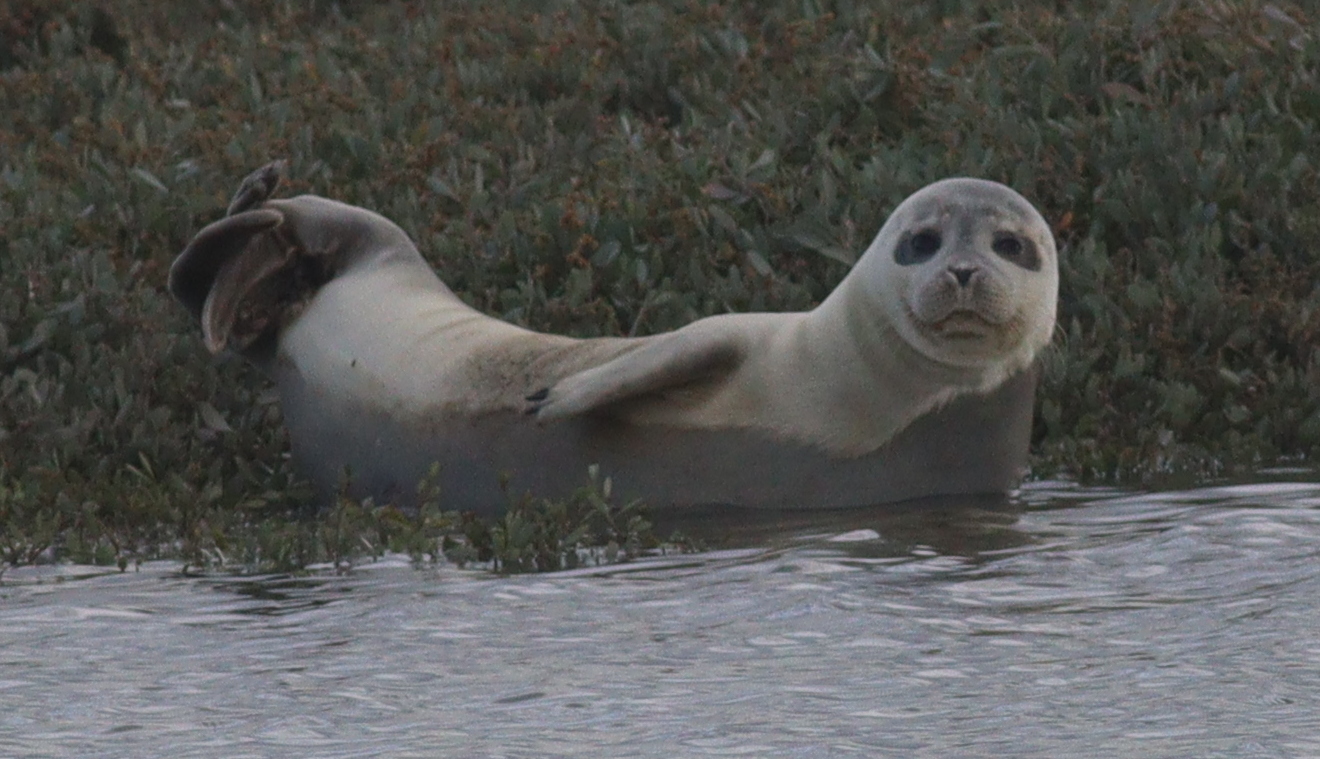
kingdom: Animalia
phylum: Chordata
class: Mammalia
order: Carnivora
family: Phocidae
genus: Phoca
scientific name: Phoca vitulina
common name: Harbor seal
